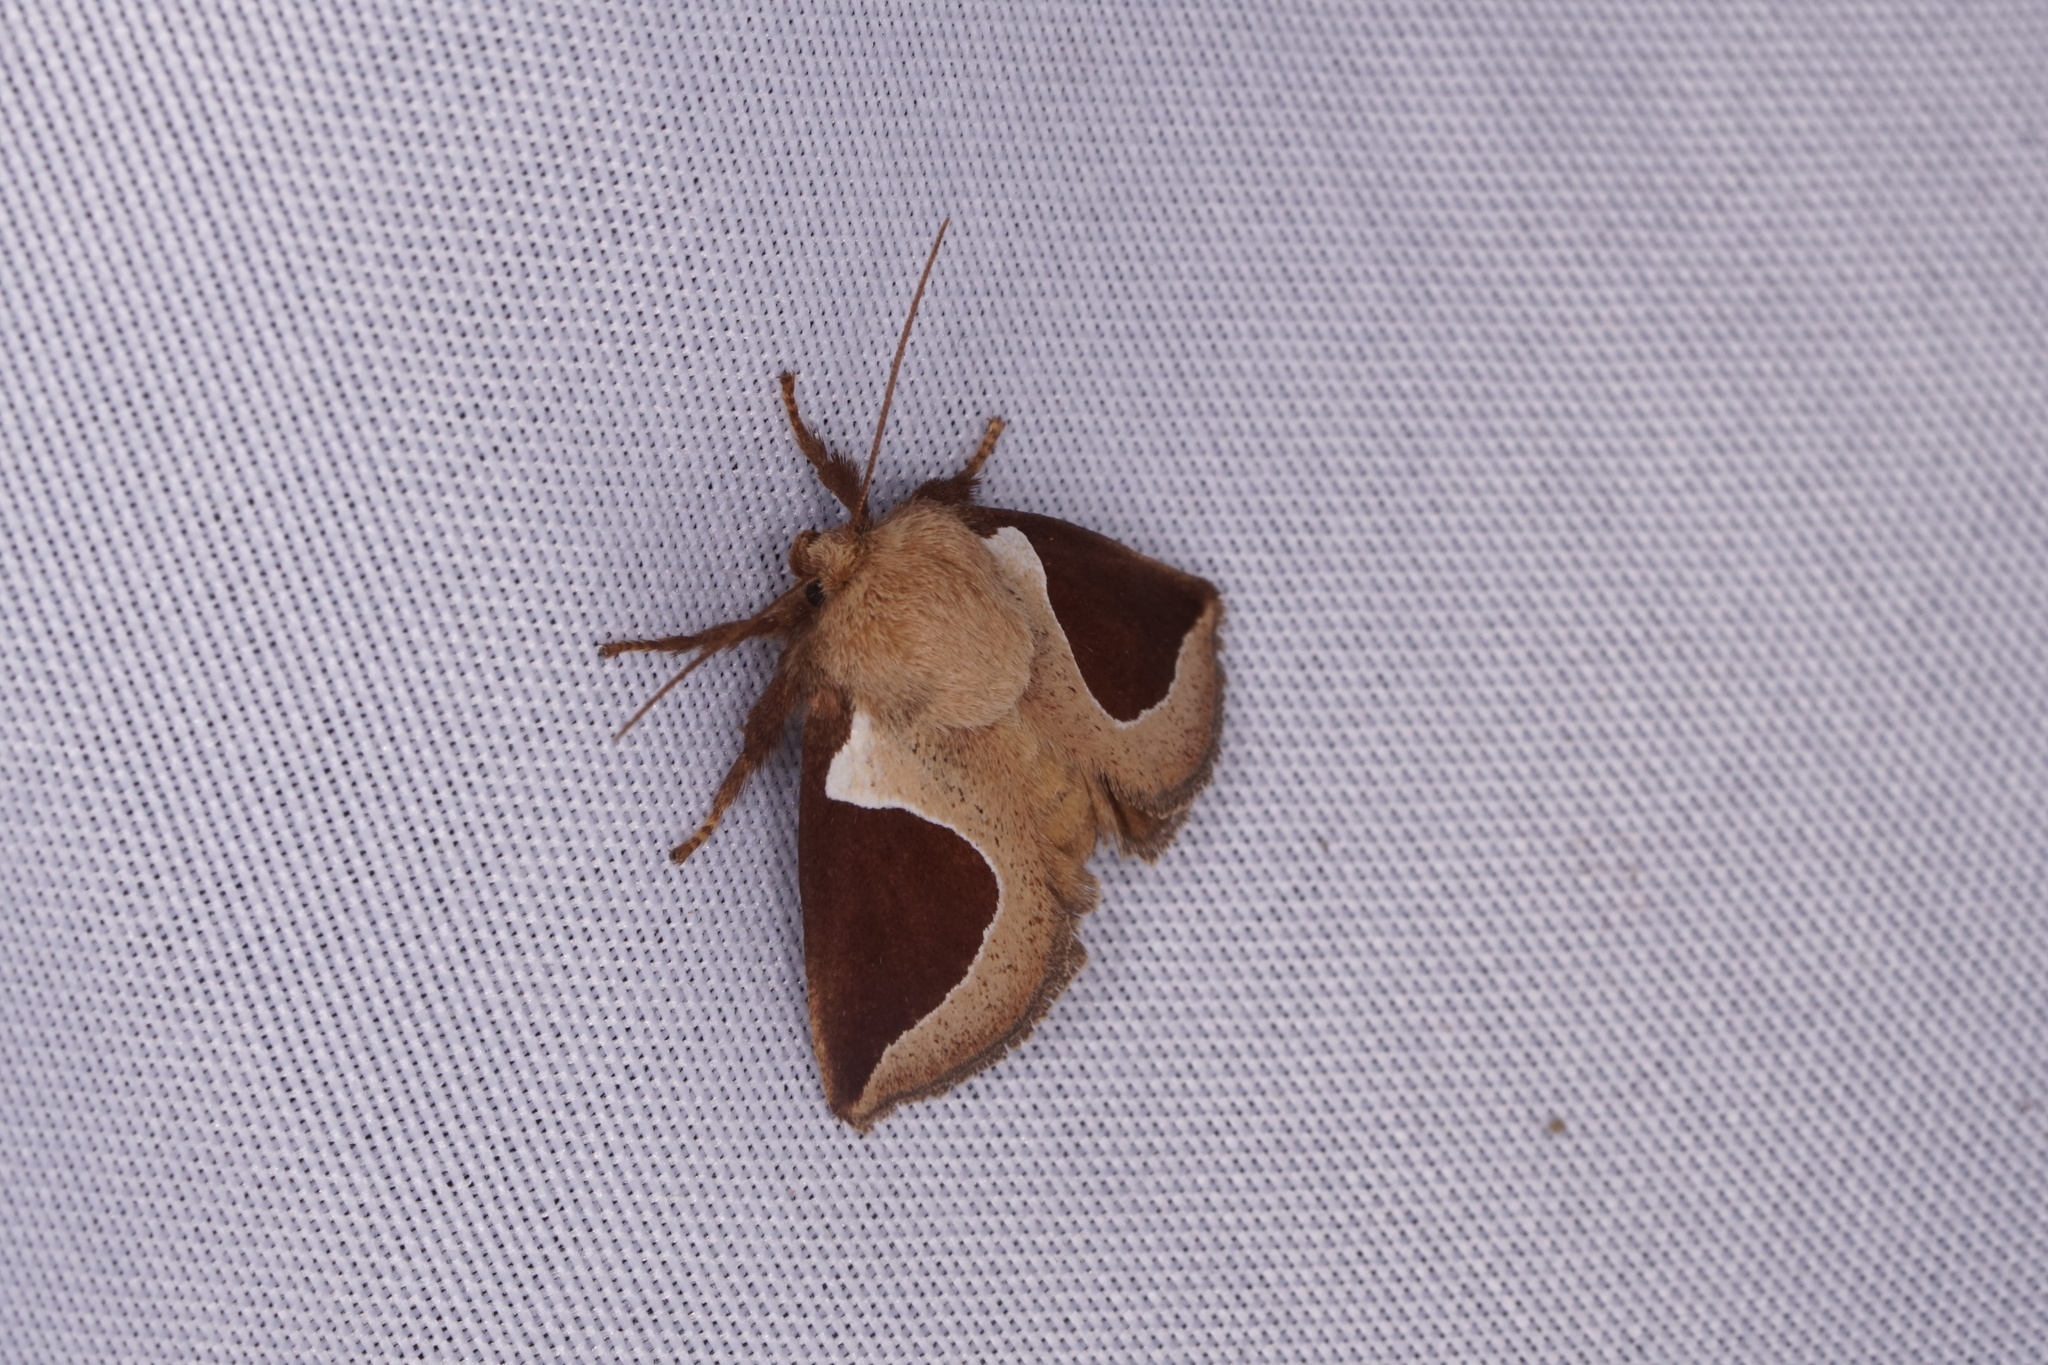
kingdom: Animalia
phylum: Arthropoda
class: Insecta
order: Lepidoptera
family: Limacodidae
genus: Prolimacodes
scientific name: Prolimacodes badia
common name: Skiff moth
